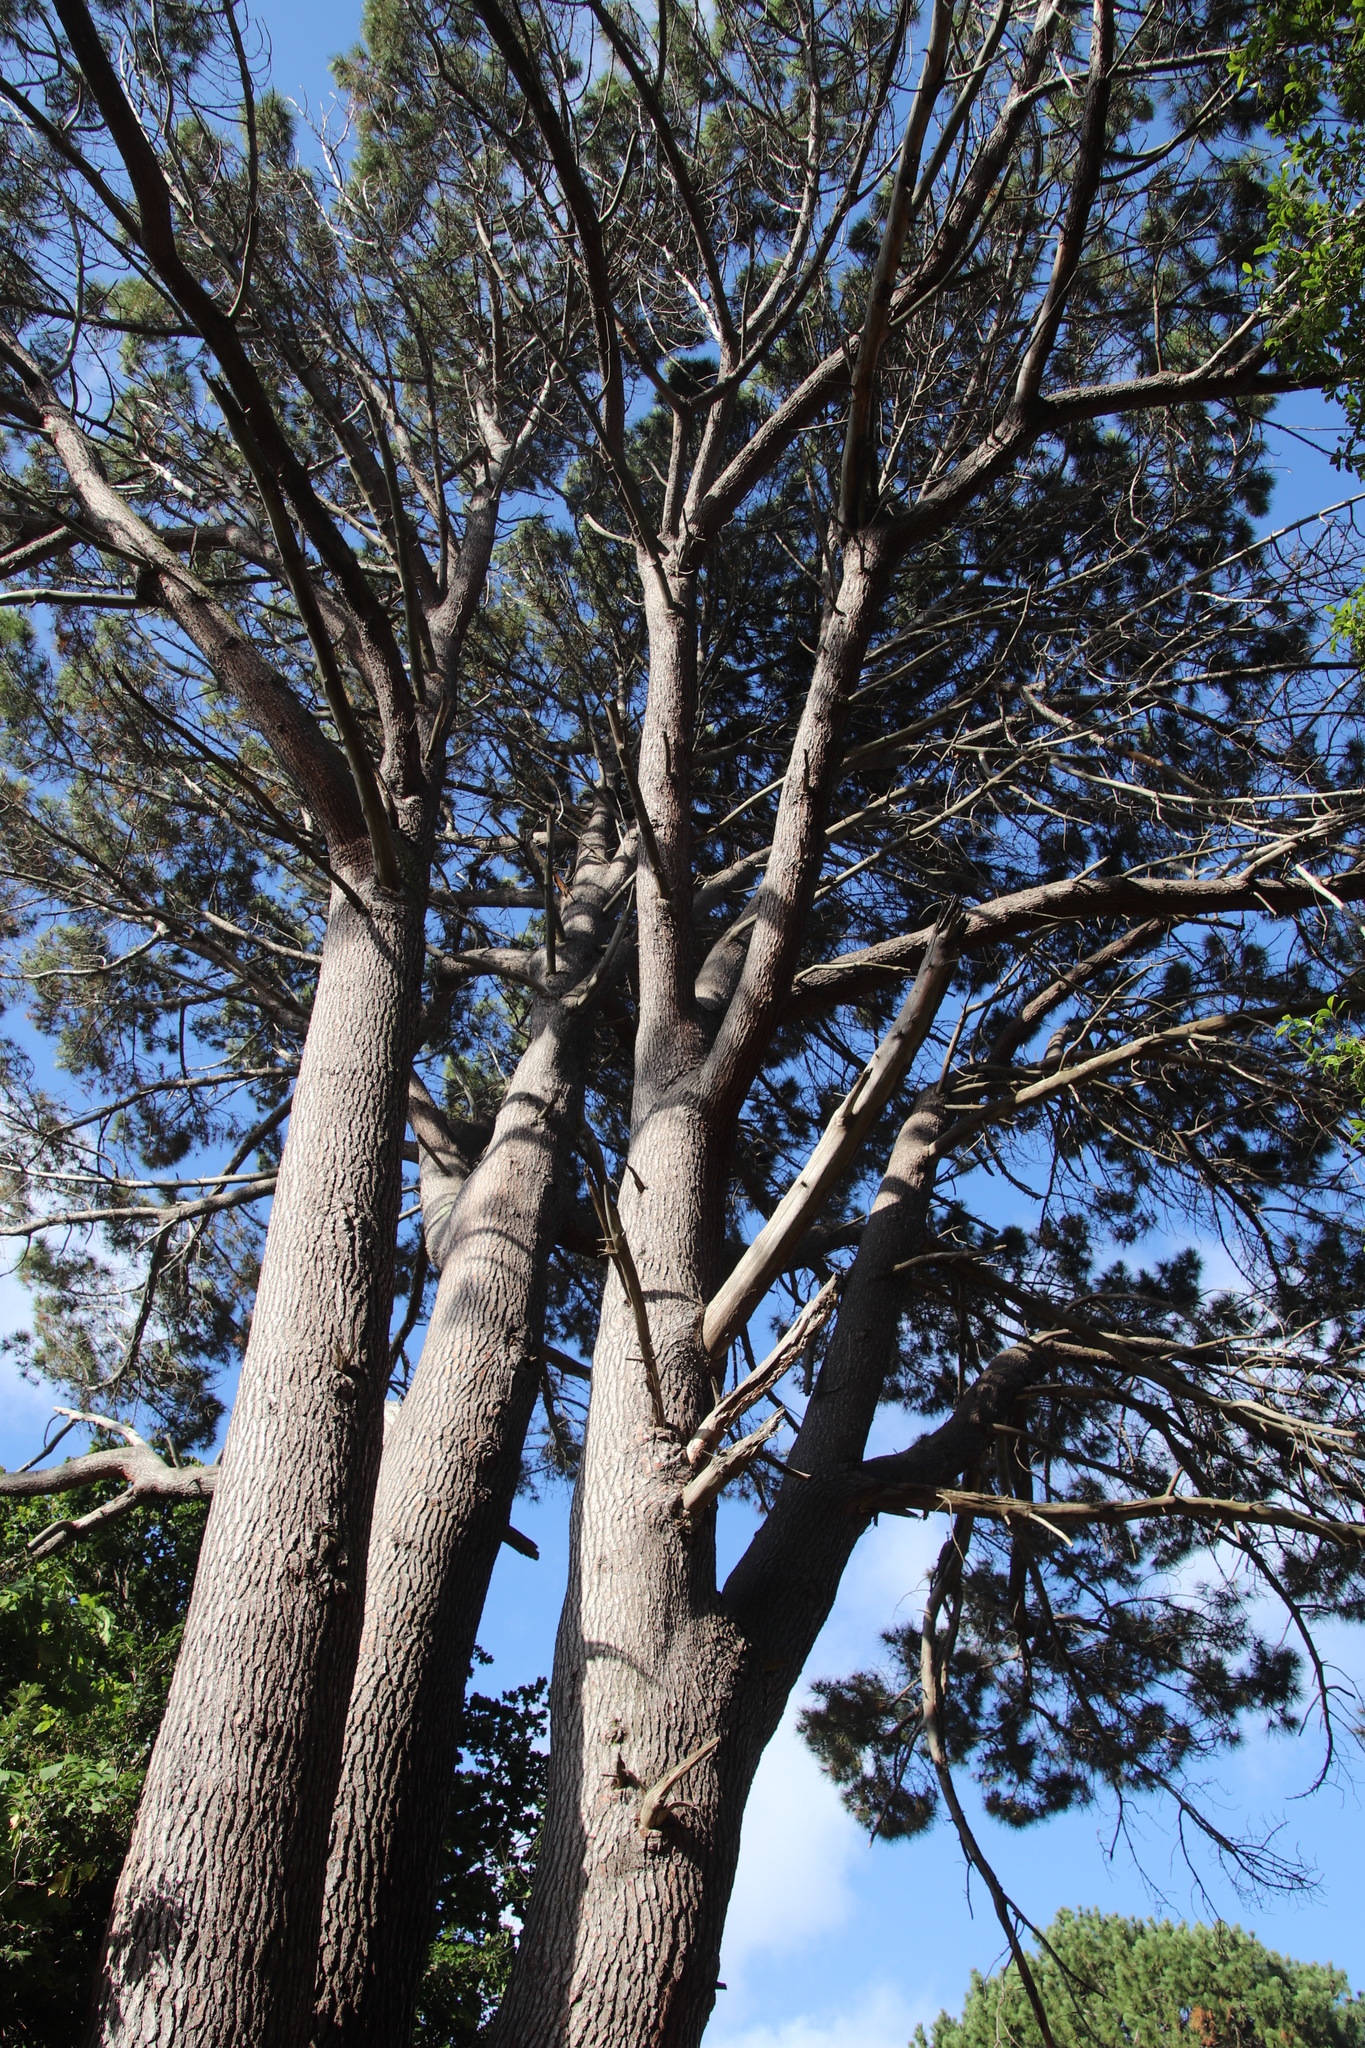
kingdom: Plantae
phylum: Tracheophyta
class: Pinopsida
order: Pinales
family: Pinaceae
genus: Pinus
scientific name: Pinus pinaster
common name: Maritime pine
